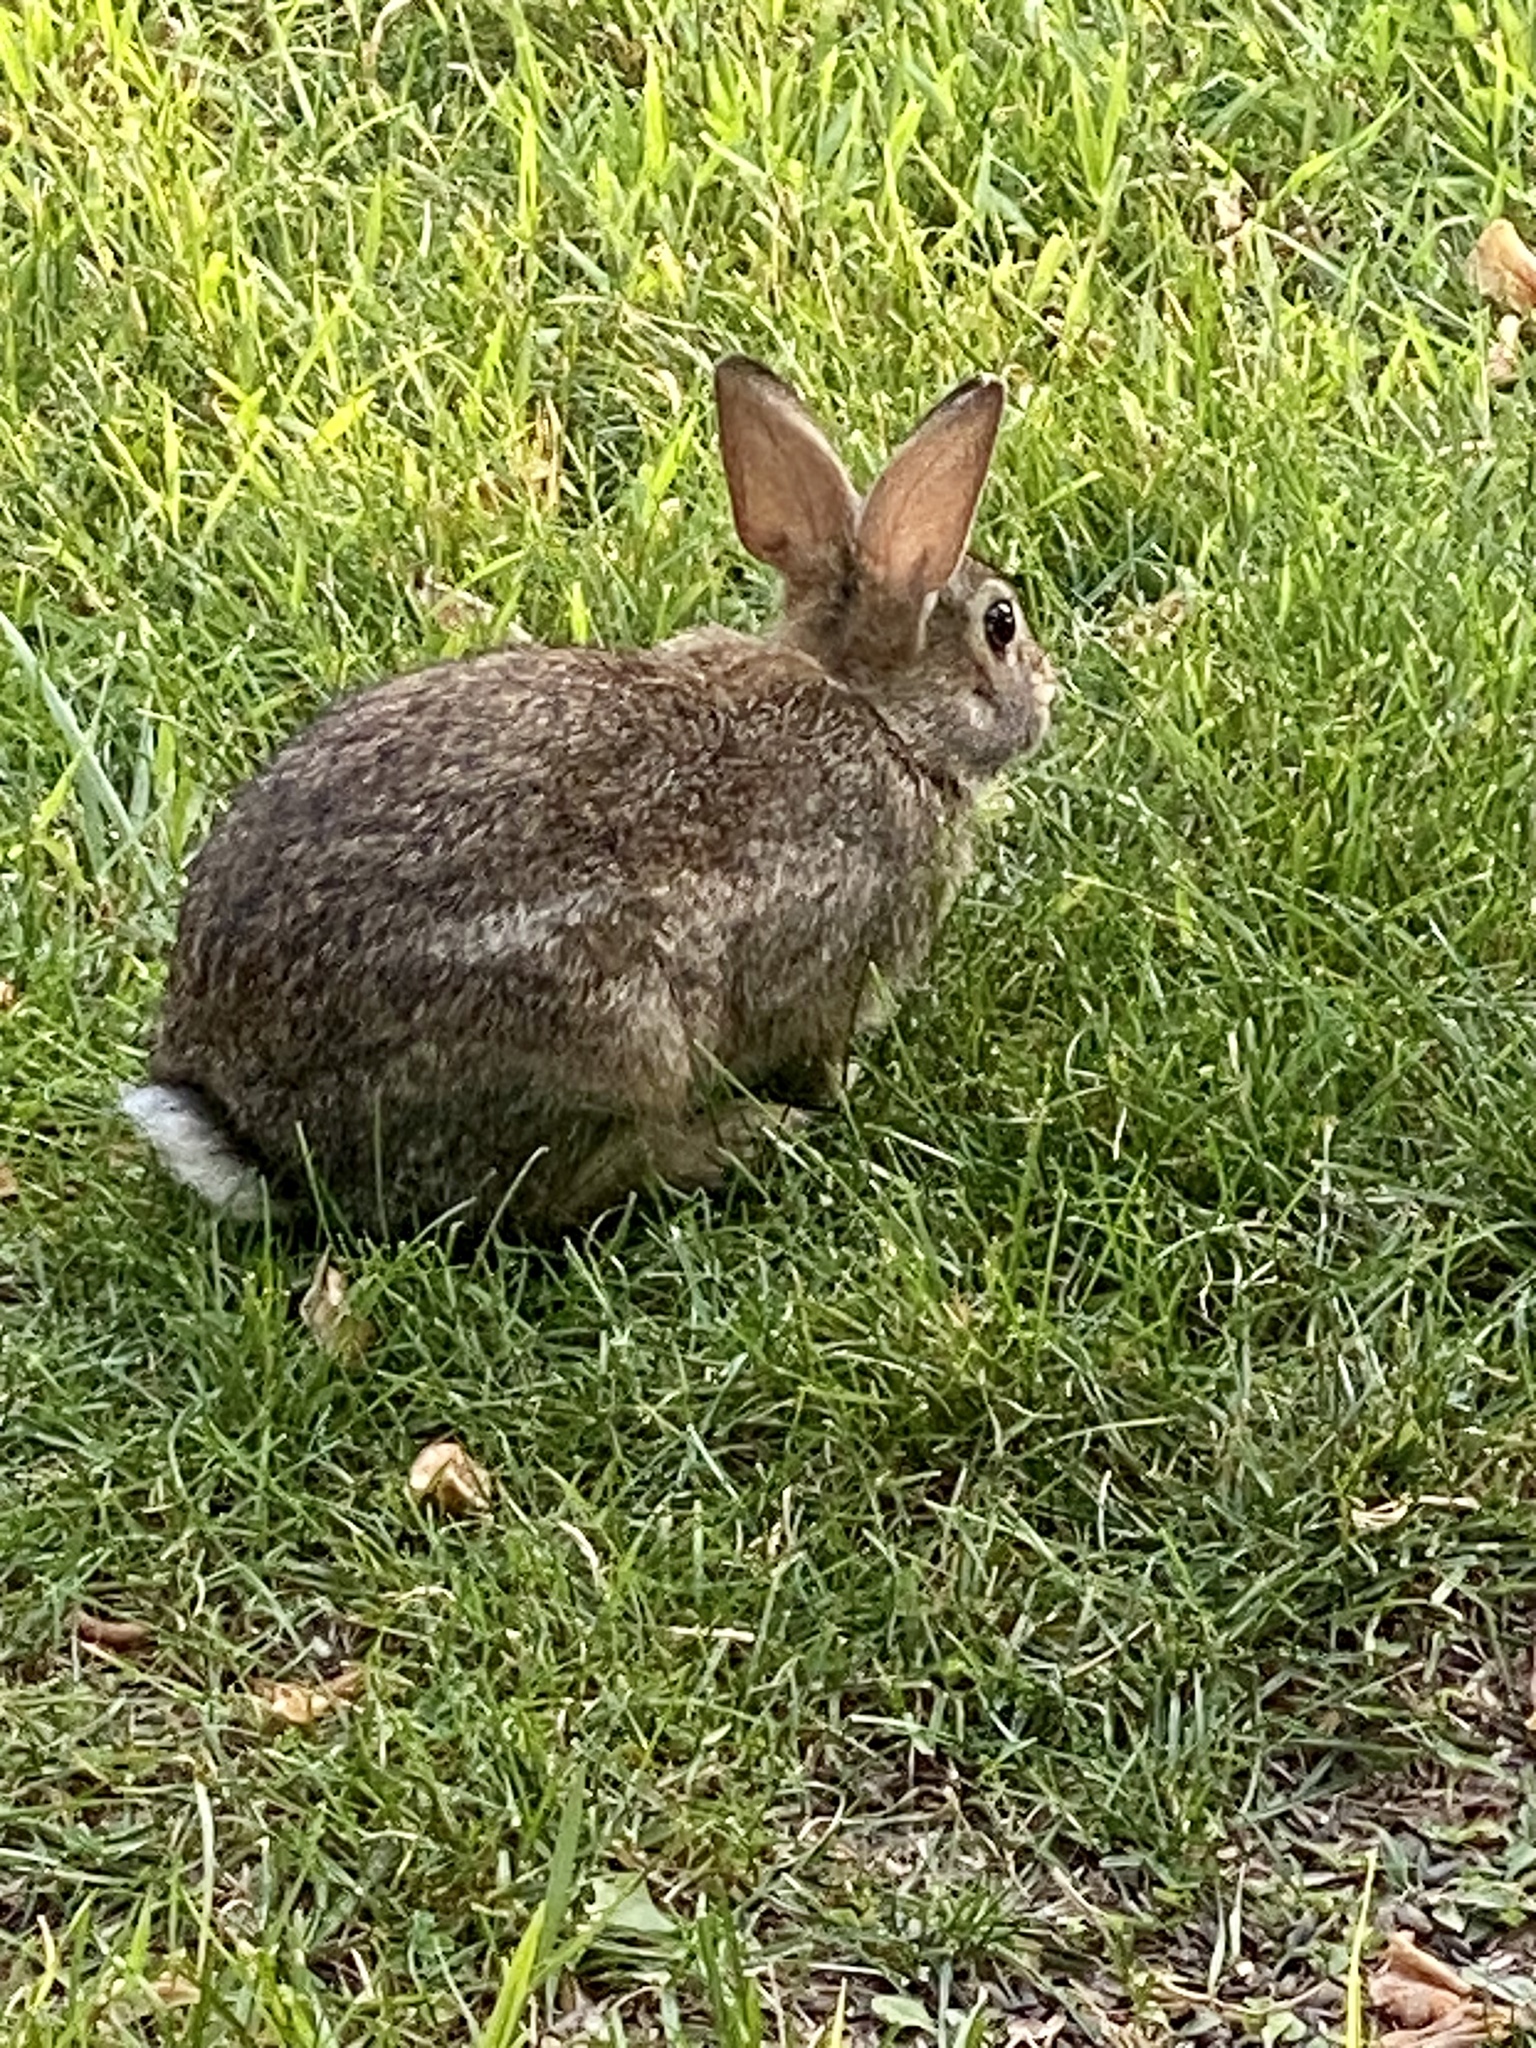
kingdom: Animalia
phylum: Chordata
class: Mammalia
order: Lagomorpha
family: Leporidae
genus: Sylvilagus
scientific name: Sylvilagus floridanus
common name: Eastern cottontail
